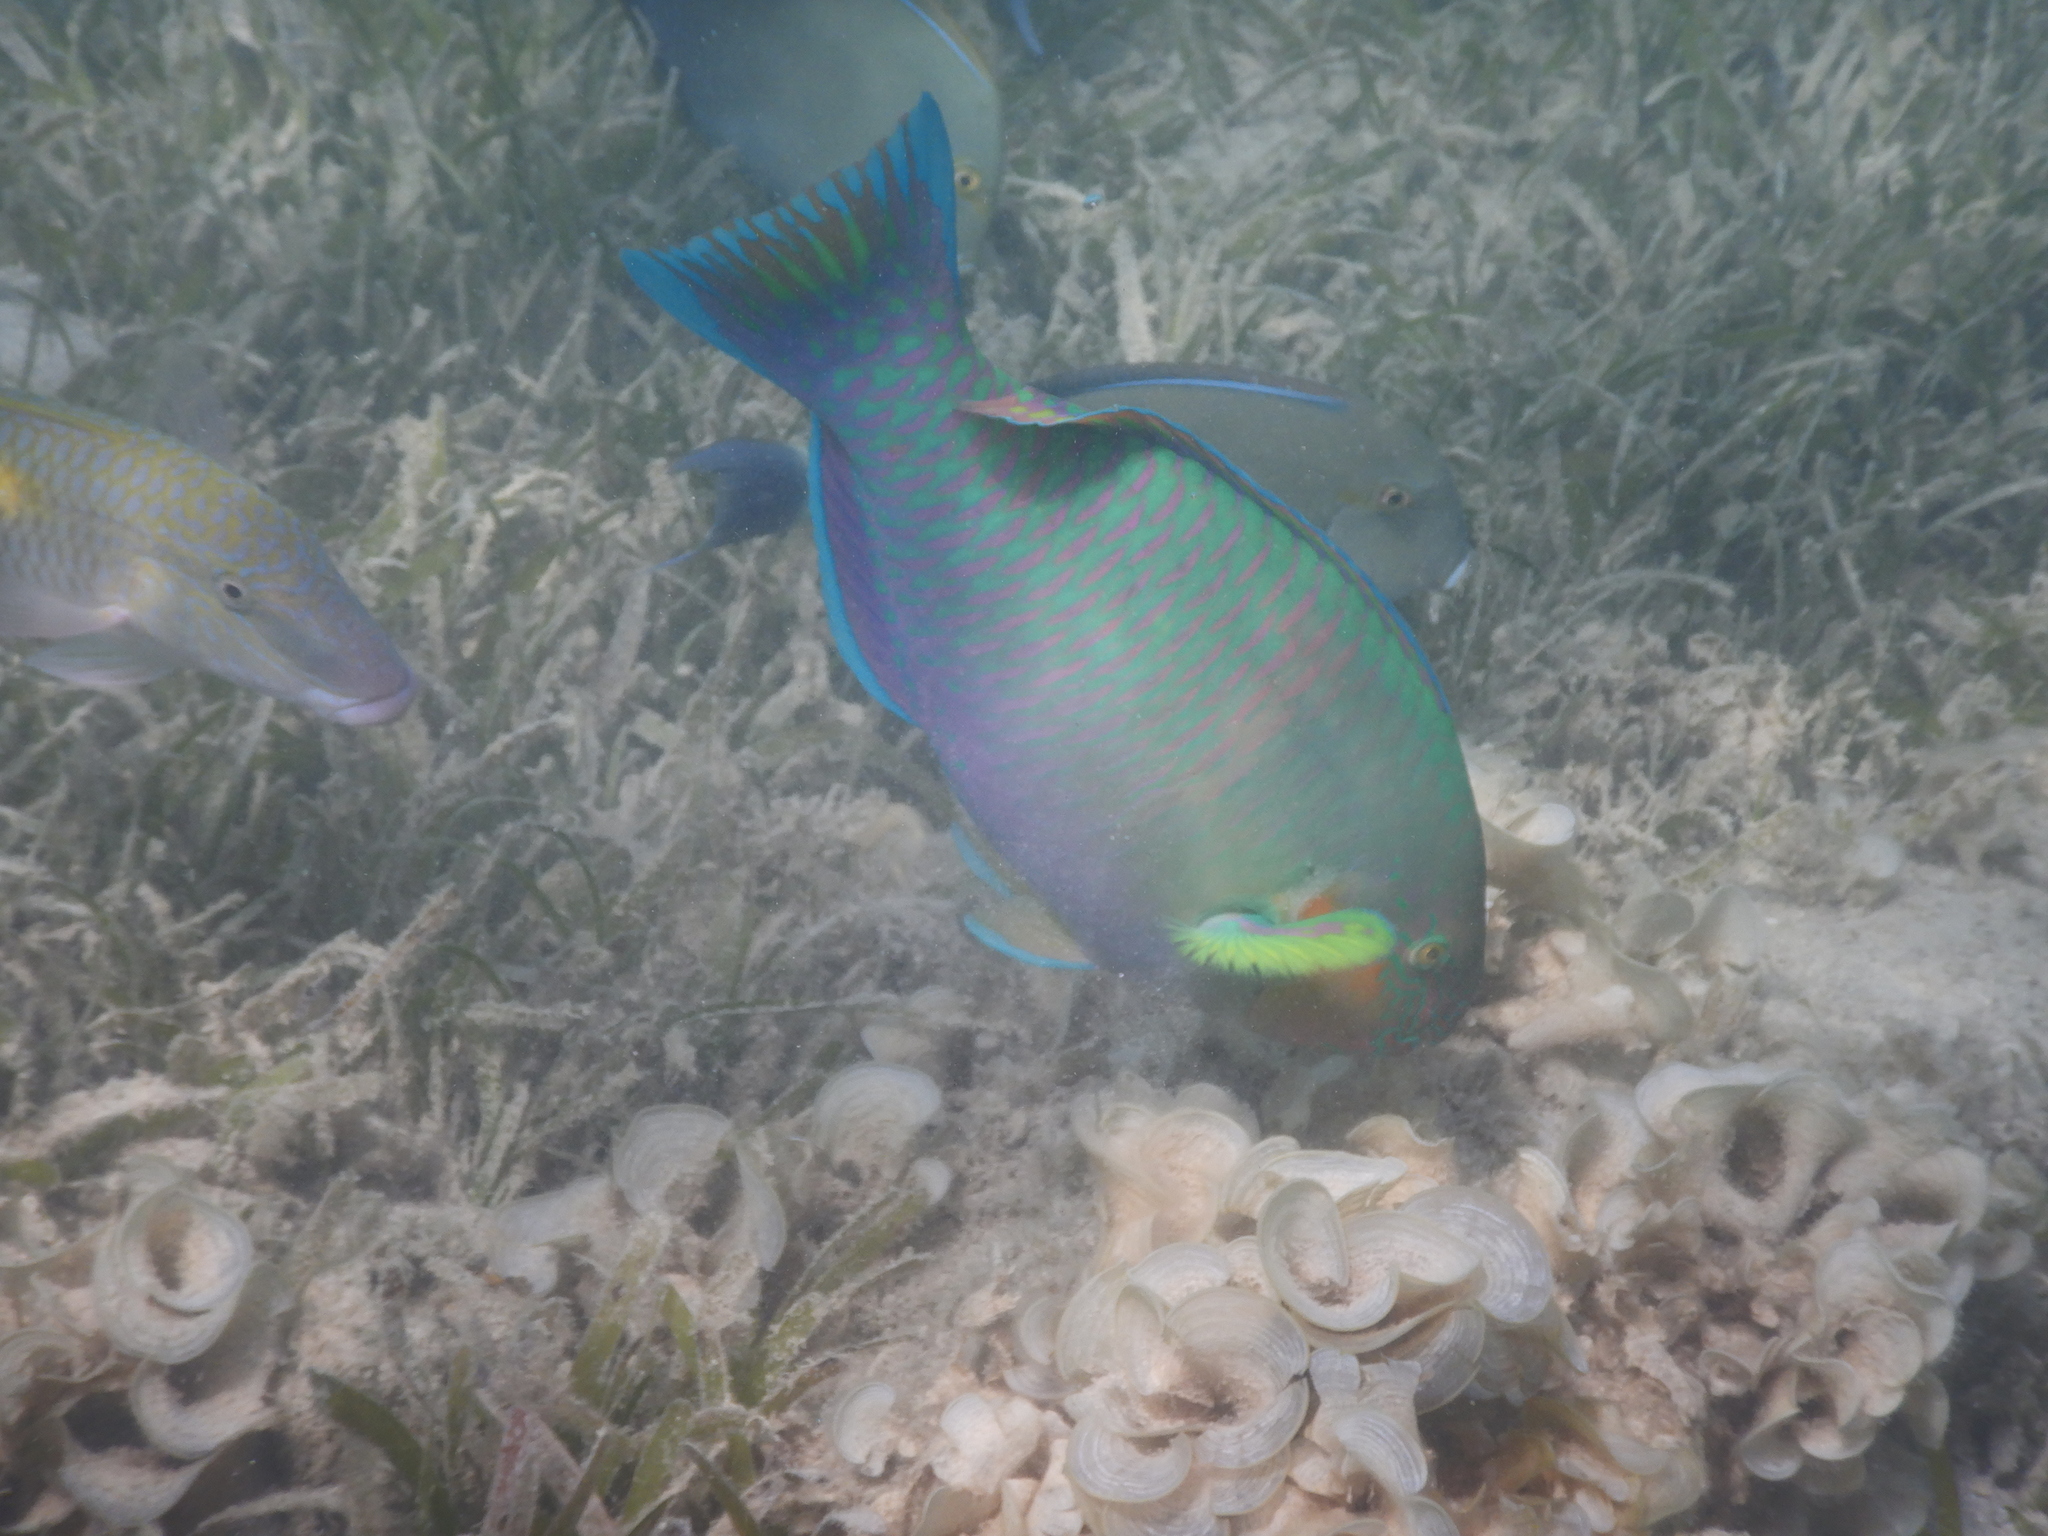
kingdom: Animalia
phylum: Chordata
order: Perciformes
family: Scaridae
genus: Scarus
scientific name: Scarus rivulatus
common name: Surf parrotfish
